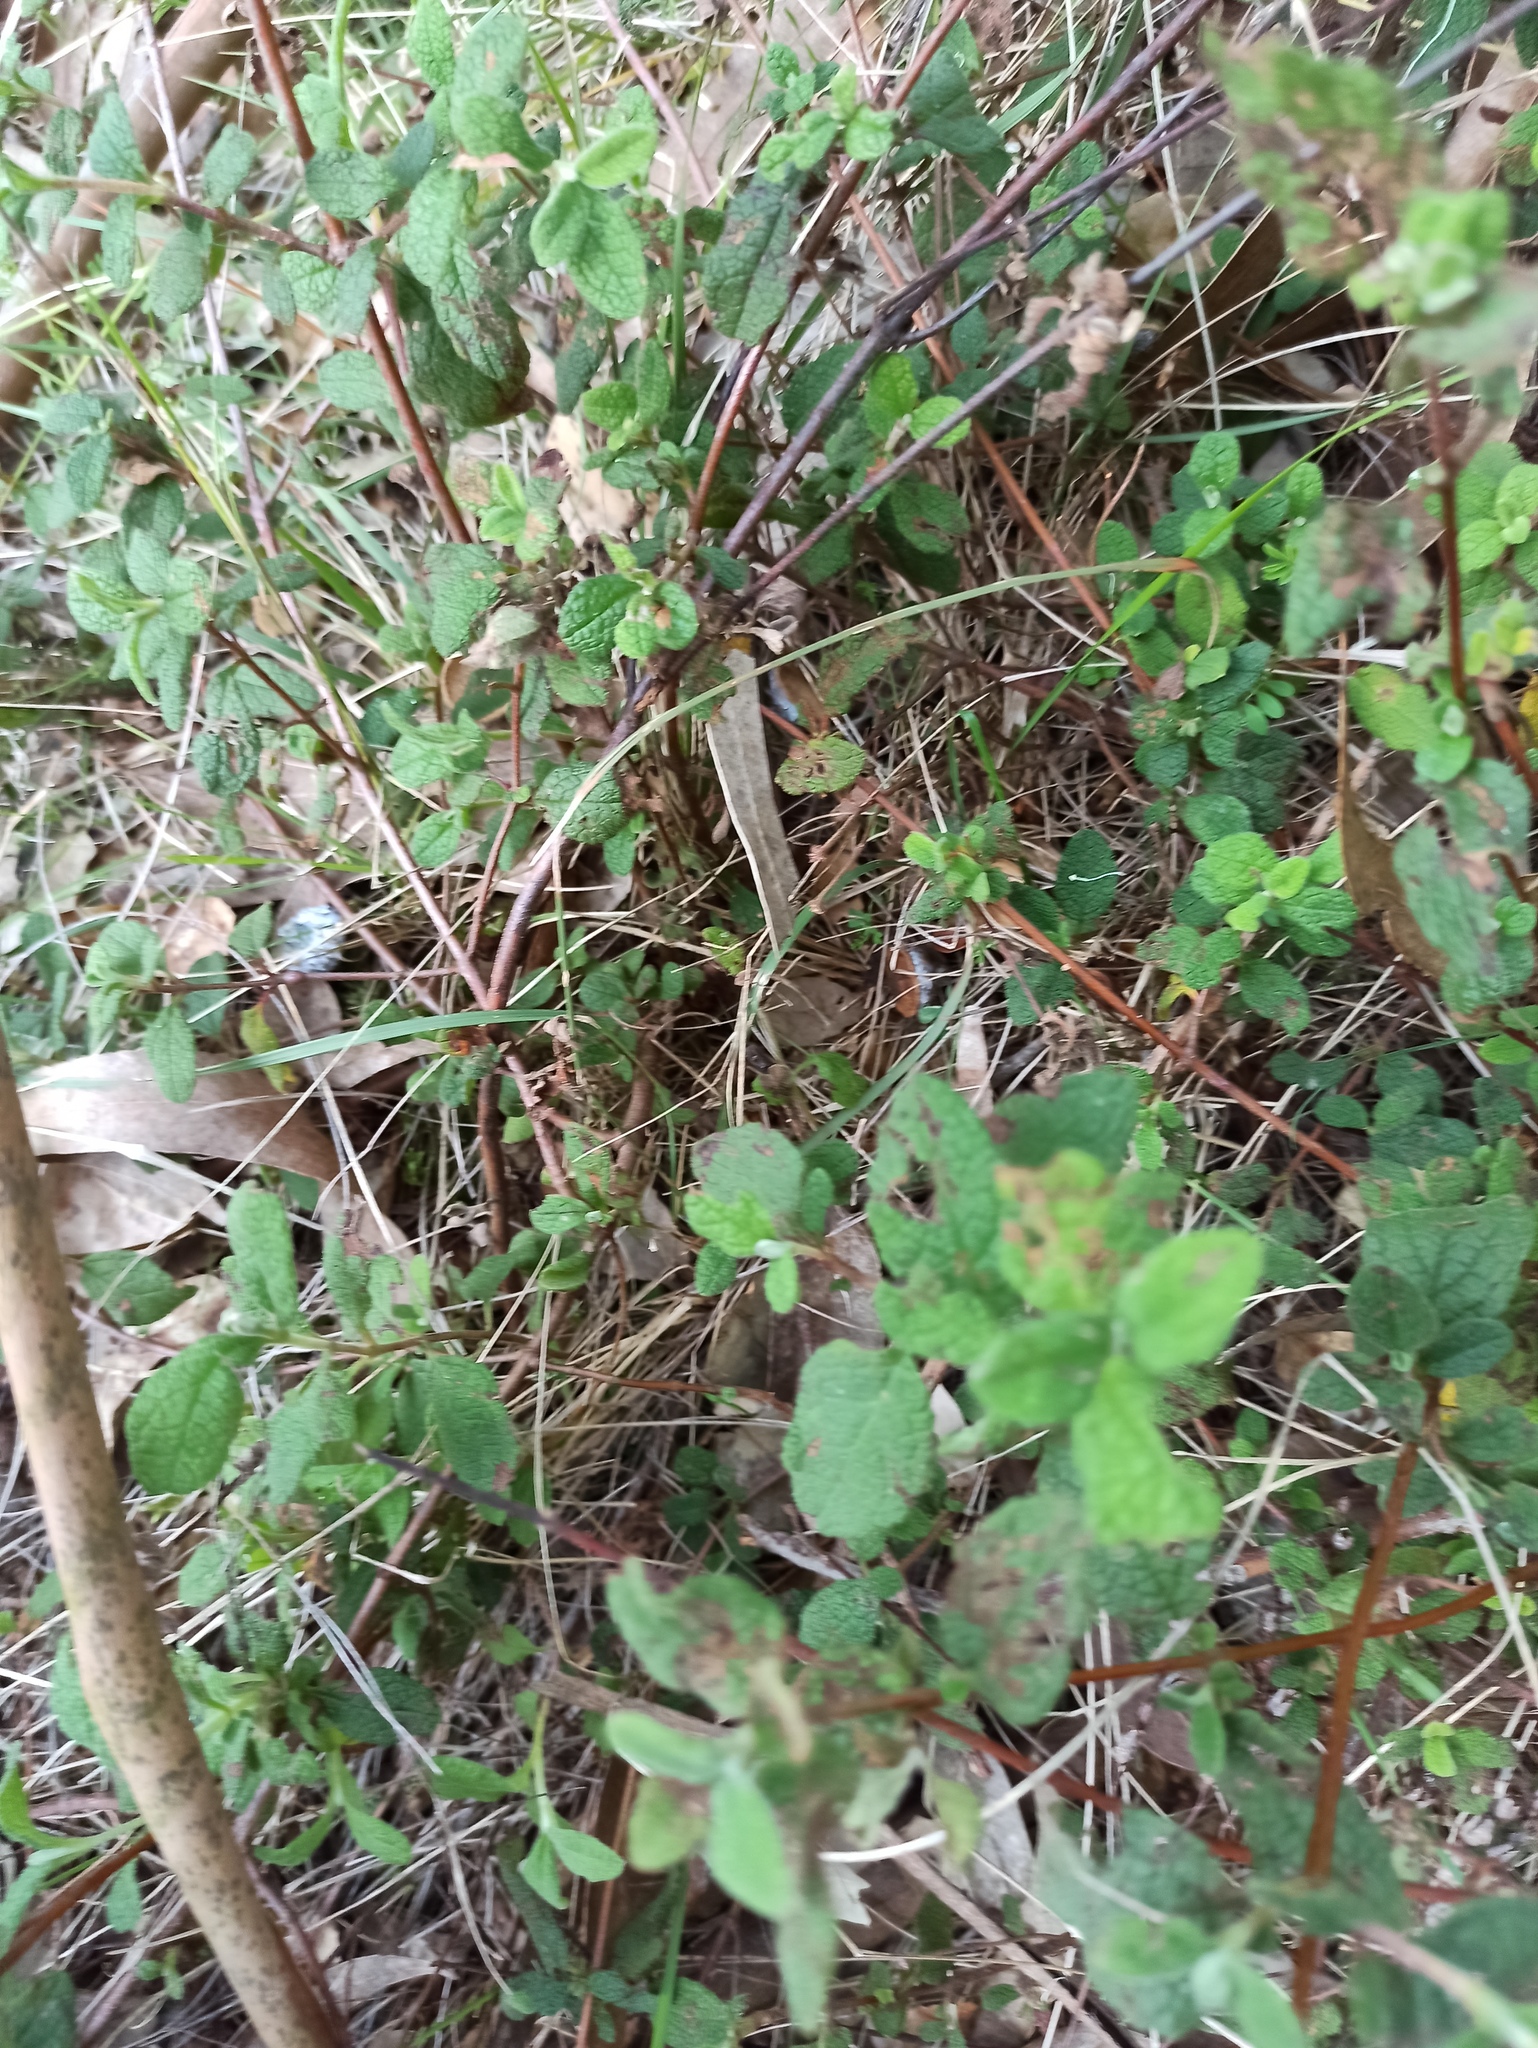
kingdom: Plantae
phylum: Tracheophyta
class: Magnoliopsida
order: Malvales
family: Cistaceae
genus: Cistus
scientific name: Cistus salviifolius
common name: Salvia cistus
